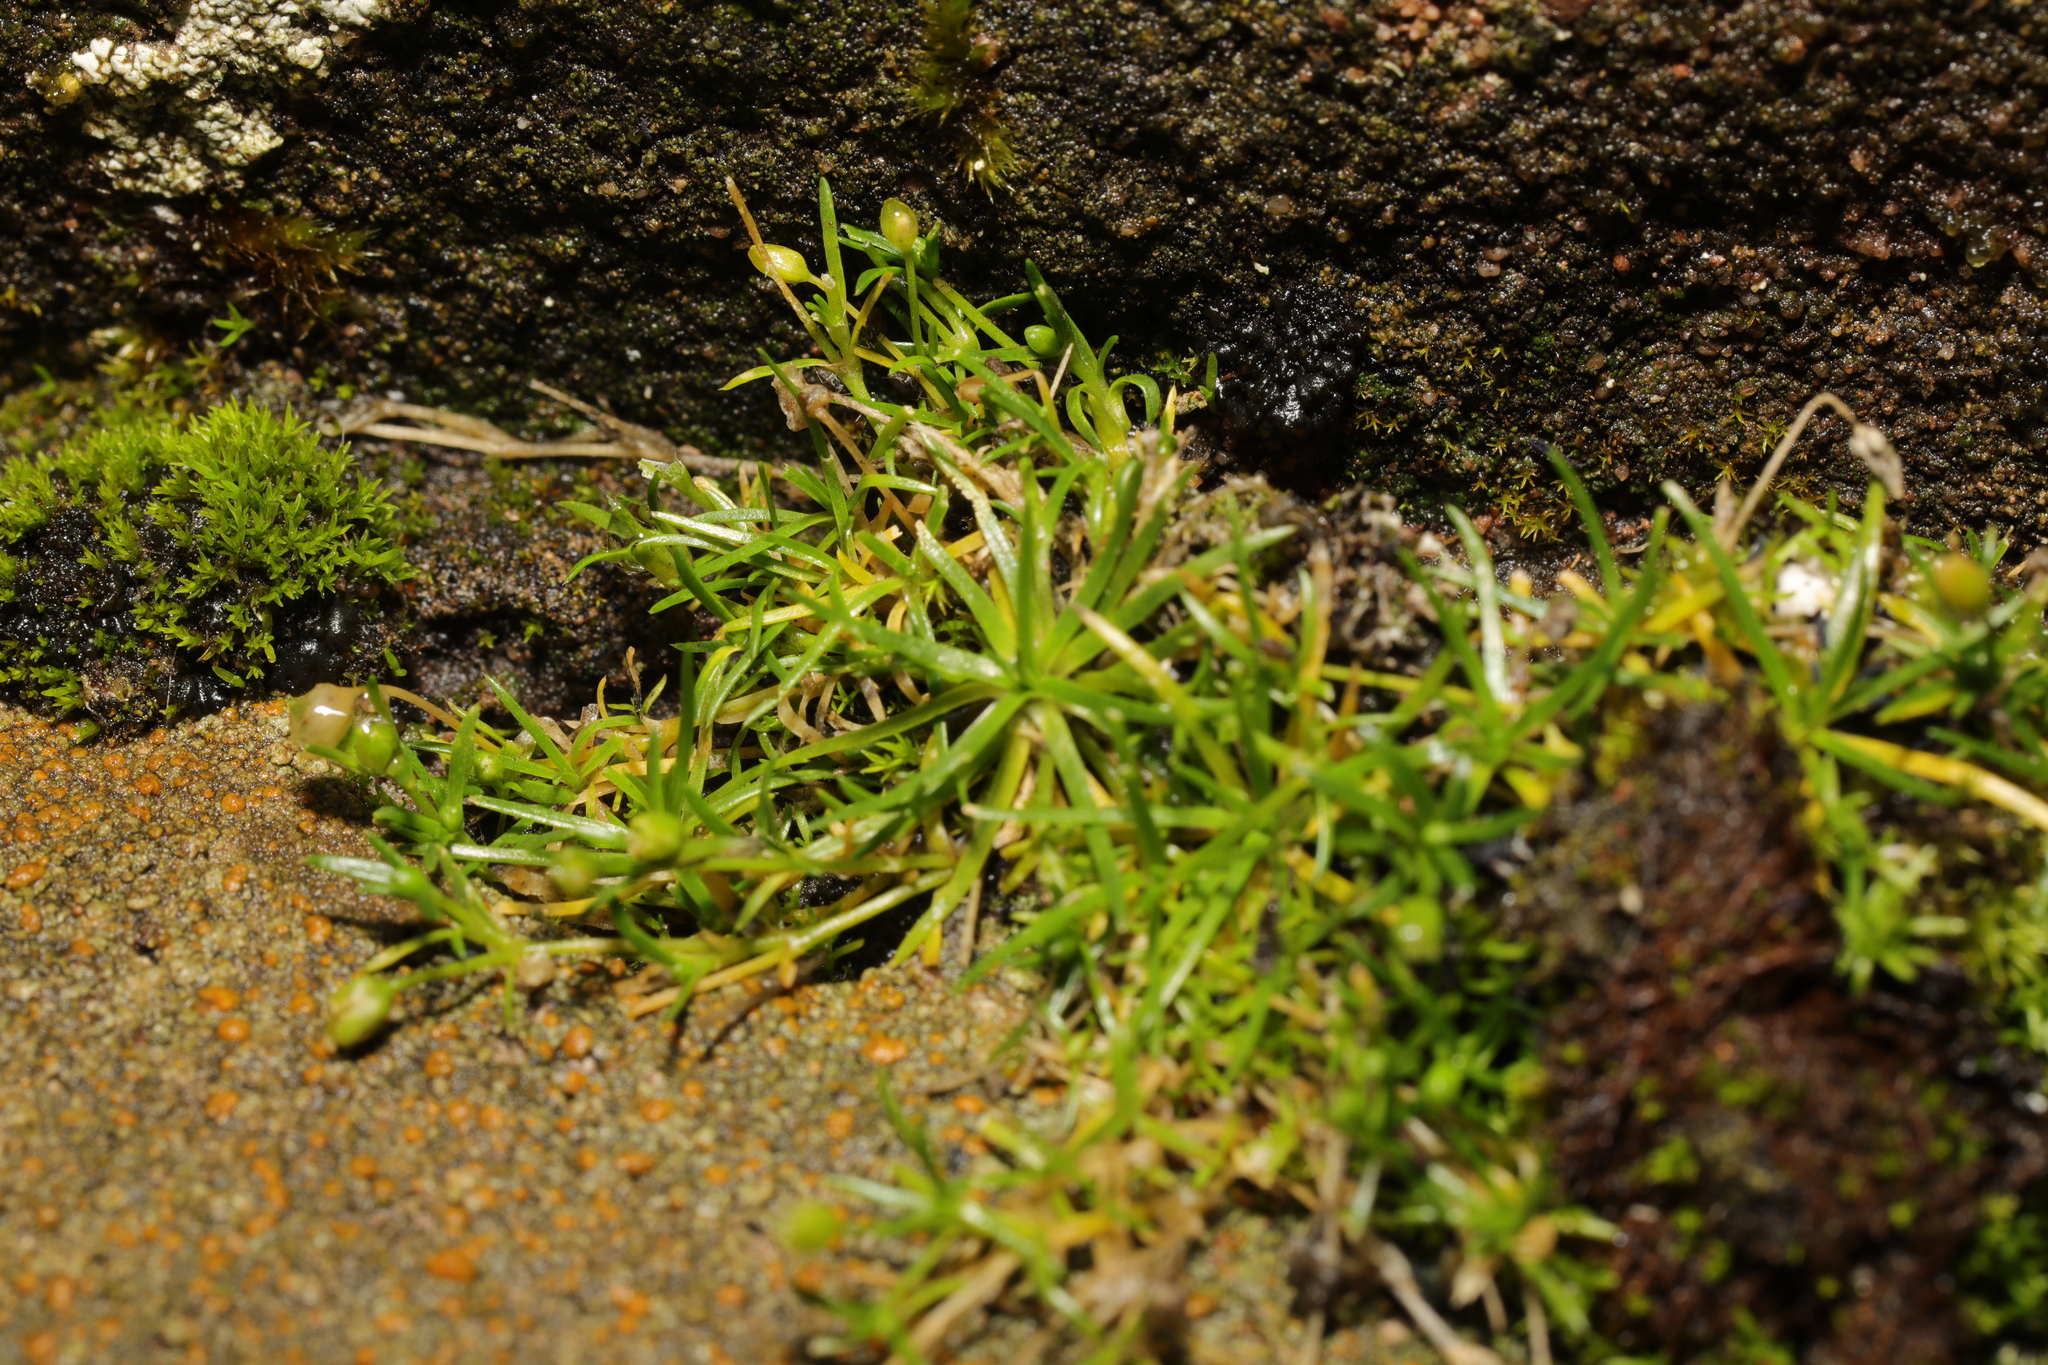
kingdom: Plantae
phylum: Tracheophyta
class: Magnoliopsida
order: Caryophyllales
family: Caryophyllaceae
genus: Sagina
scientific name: Sagina procumbens
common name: Procumbent pearlwort
